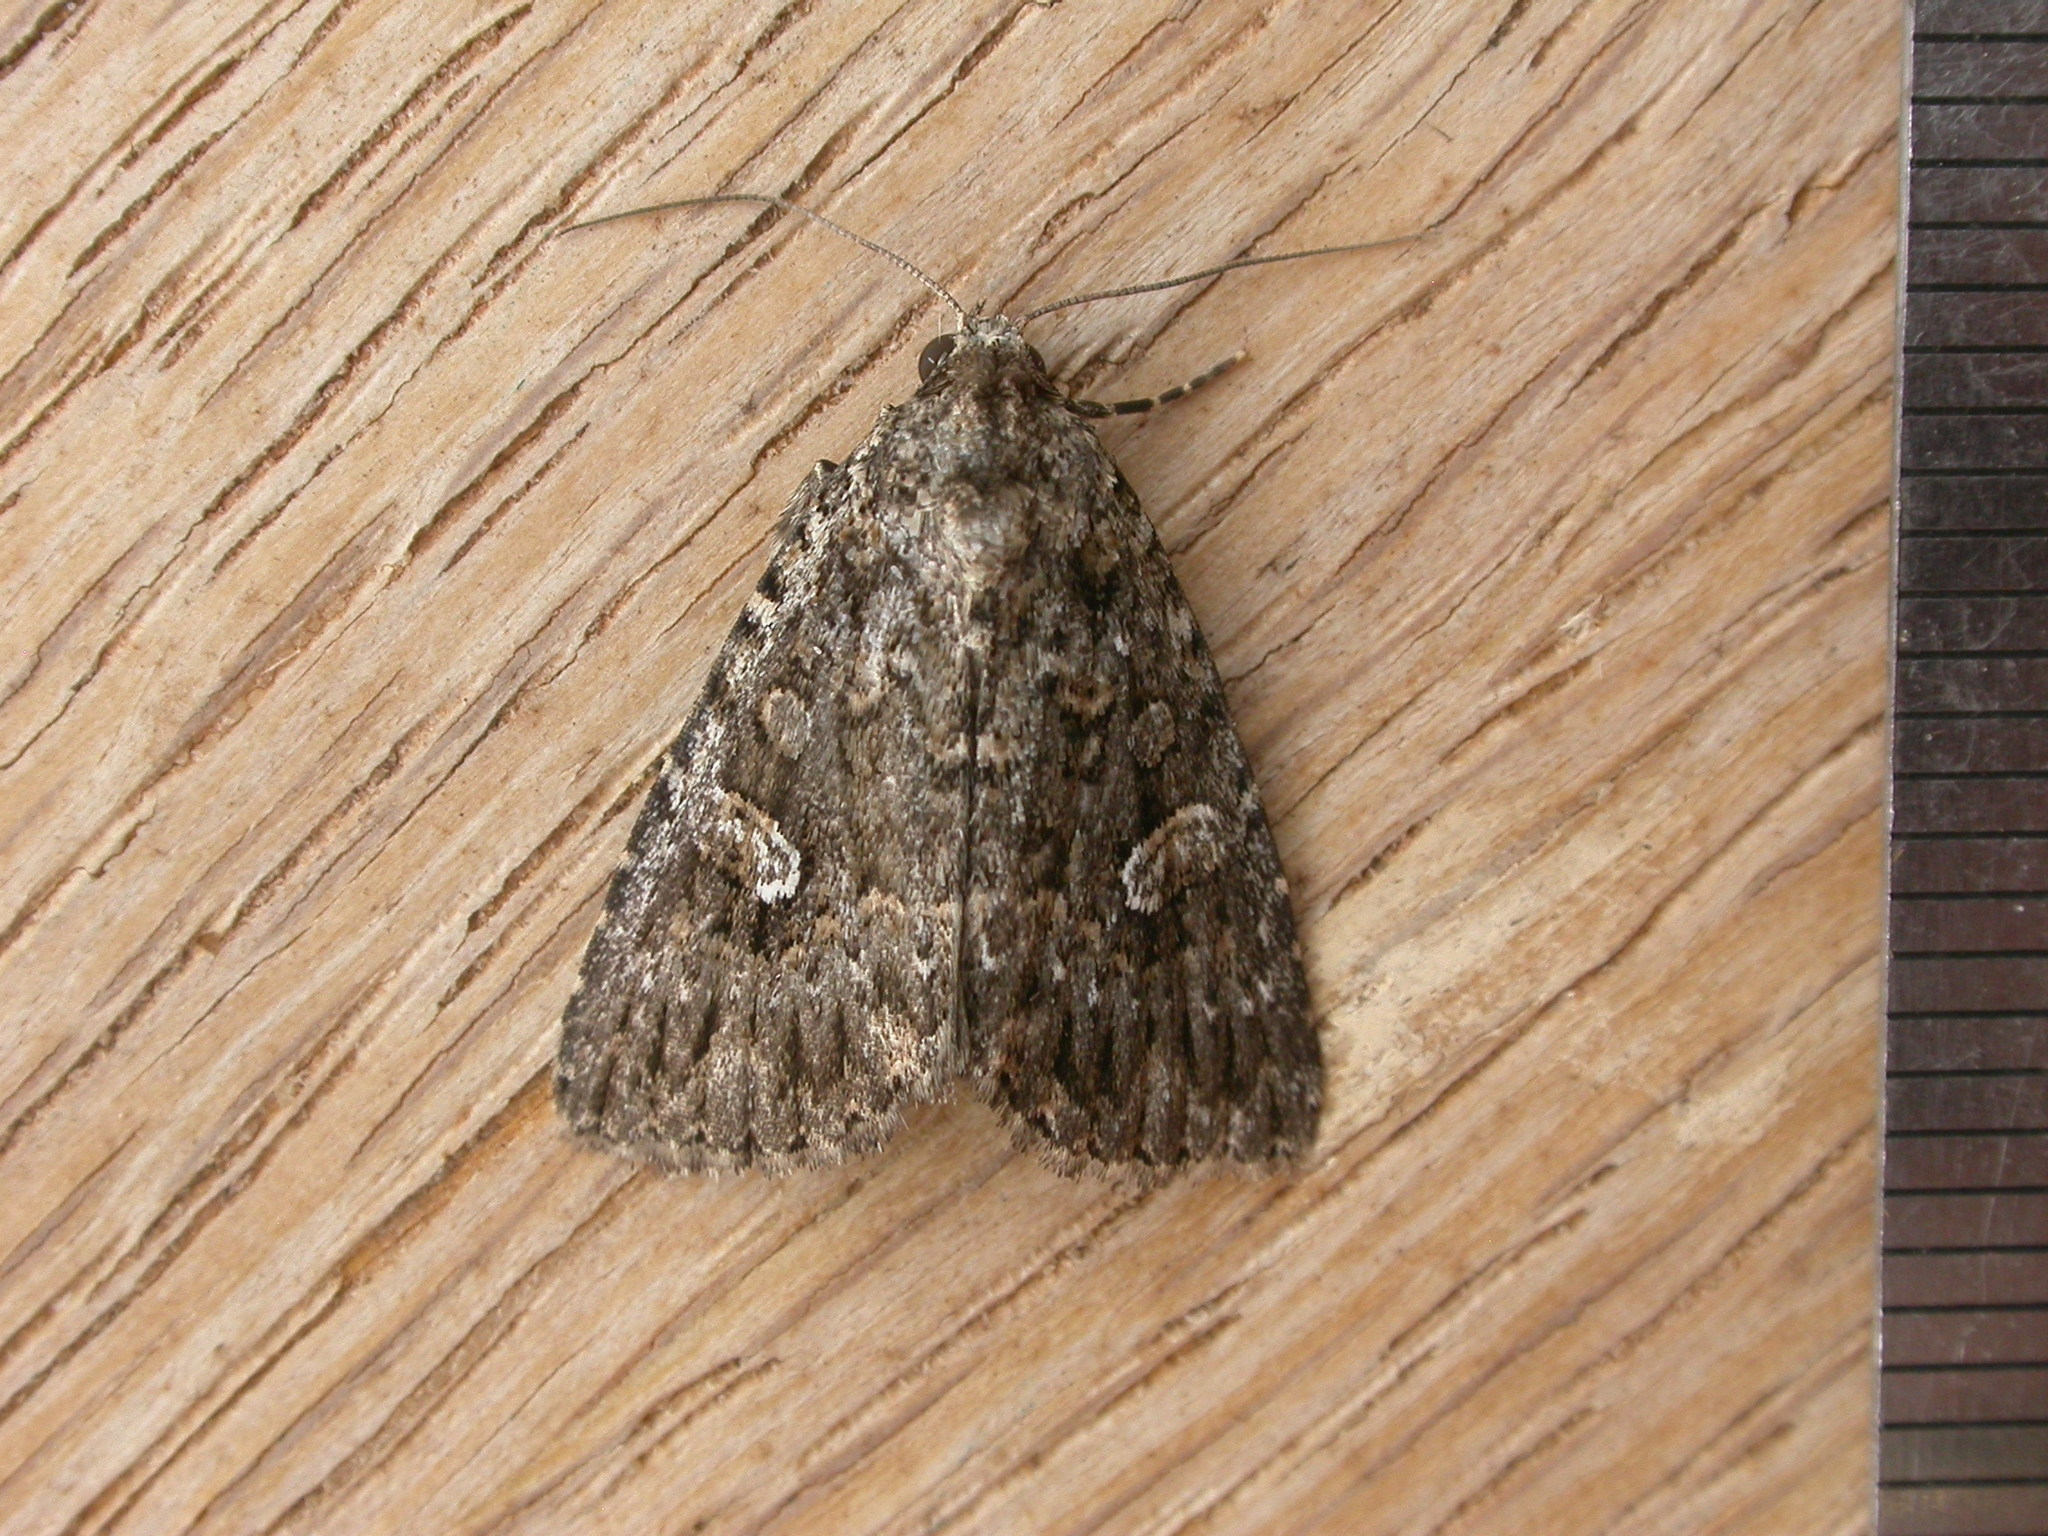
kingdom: Animalia
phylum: Arthropoda
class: Insecta
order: Lepidoptera
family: Noctuidae
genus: Condica
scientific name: Condica aroana
